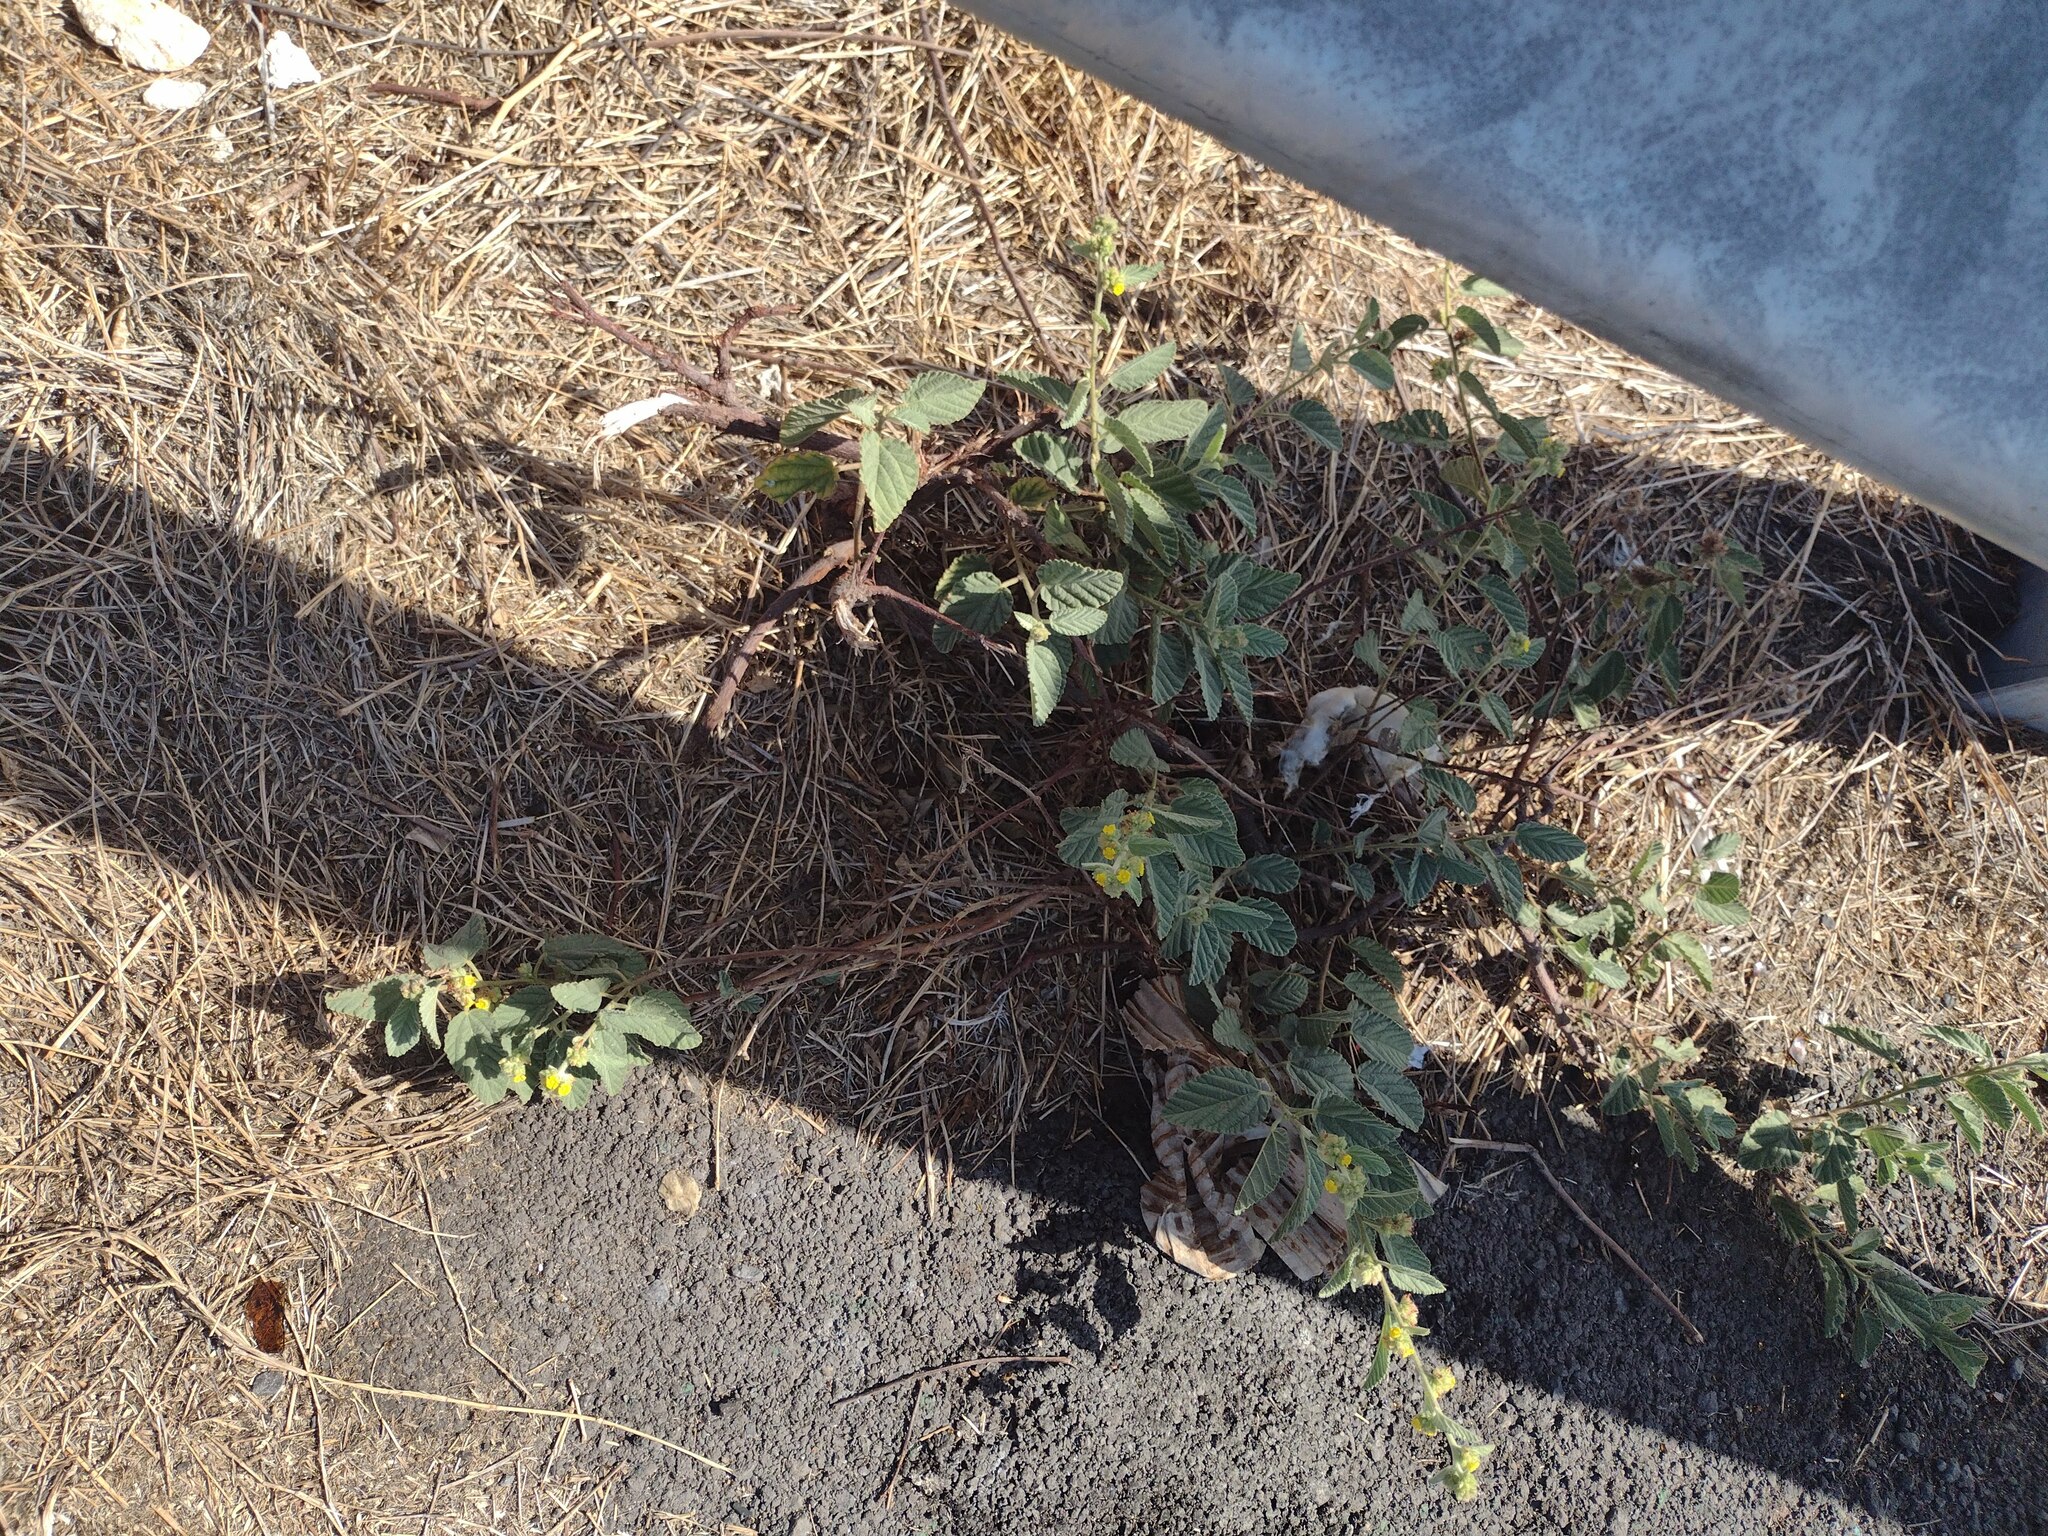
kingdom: Plantae
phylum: Tracheophyta
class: Magnoliopsida
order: Malvales
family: Malvaceae
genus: Waltheria
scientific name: Waltheria indica
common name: Leather-coat
